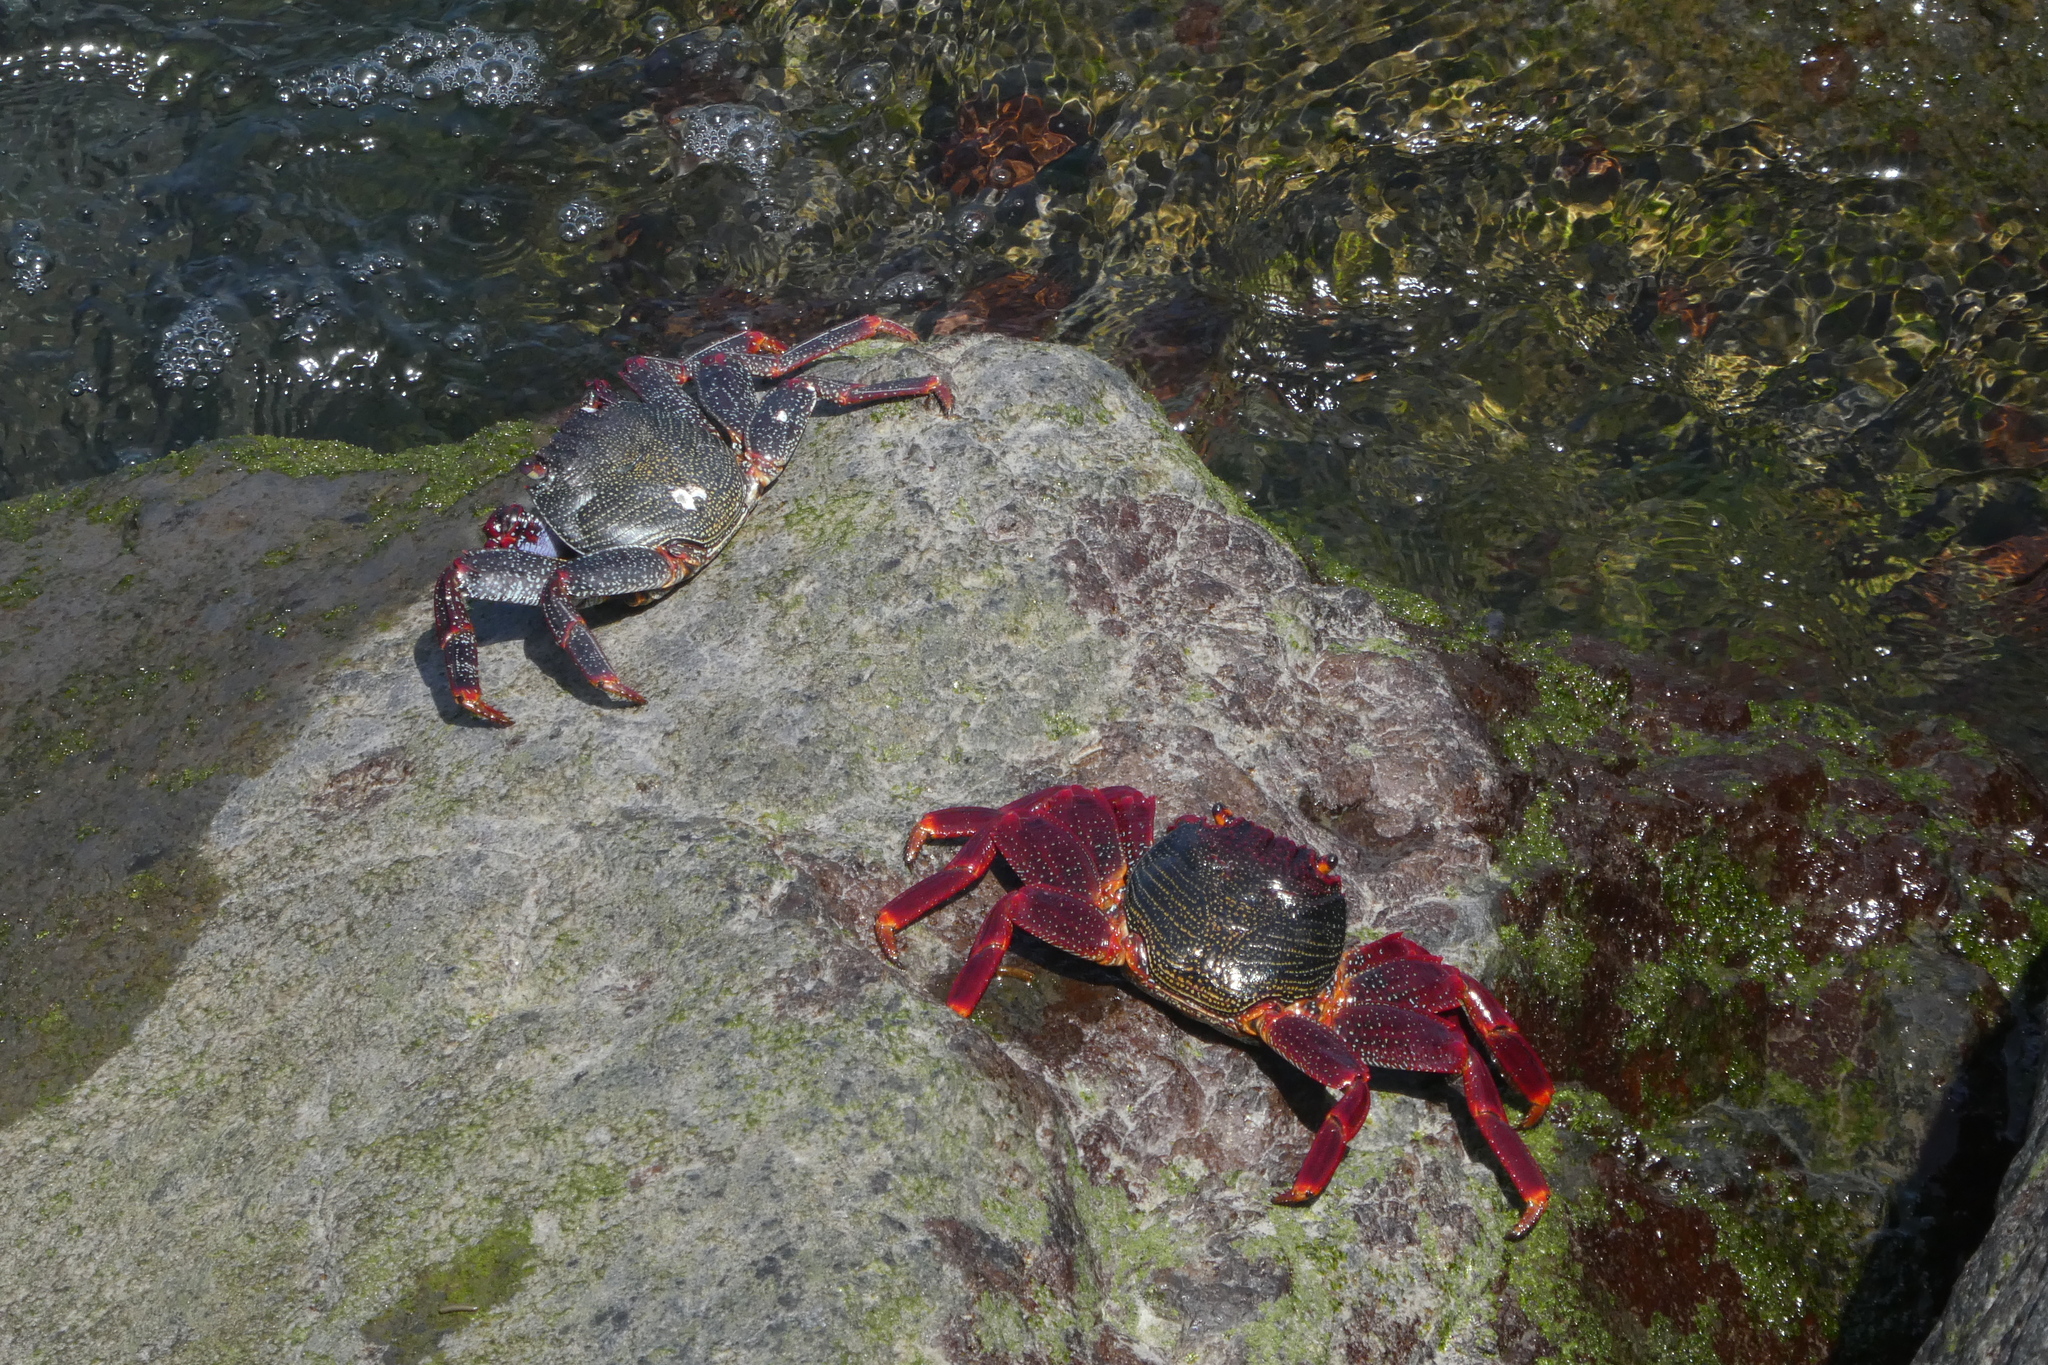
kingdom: Animalia
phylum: Arthropoda
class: Malacostraca
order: Decapoda
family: Grapsidae
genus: Grapsus
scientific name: Grapsus adscensionis
